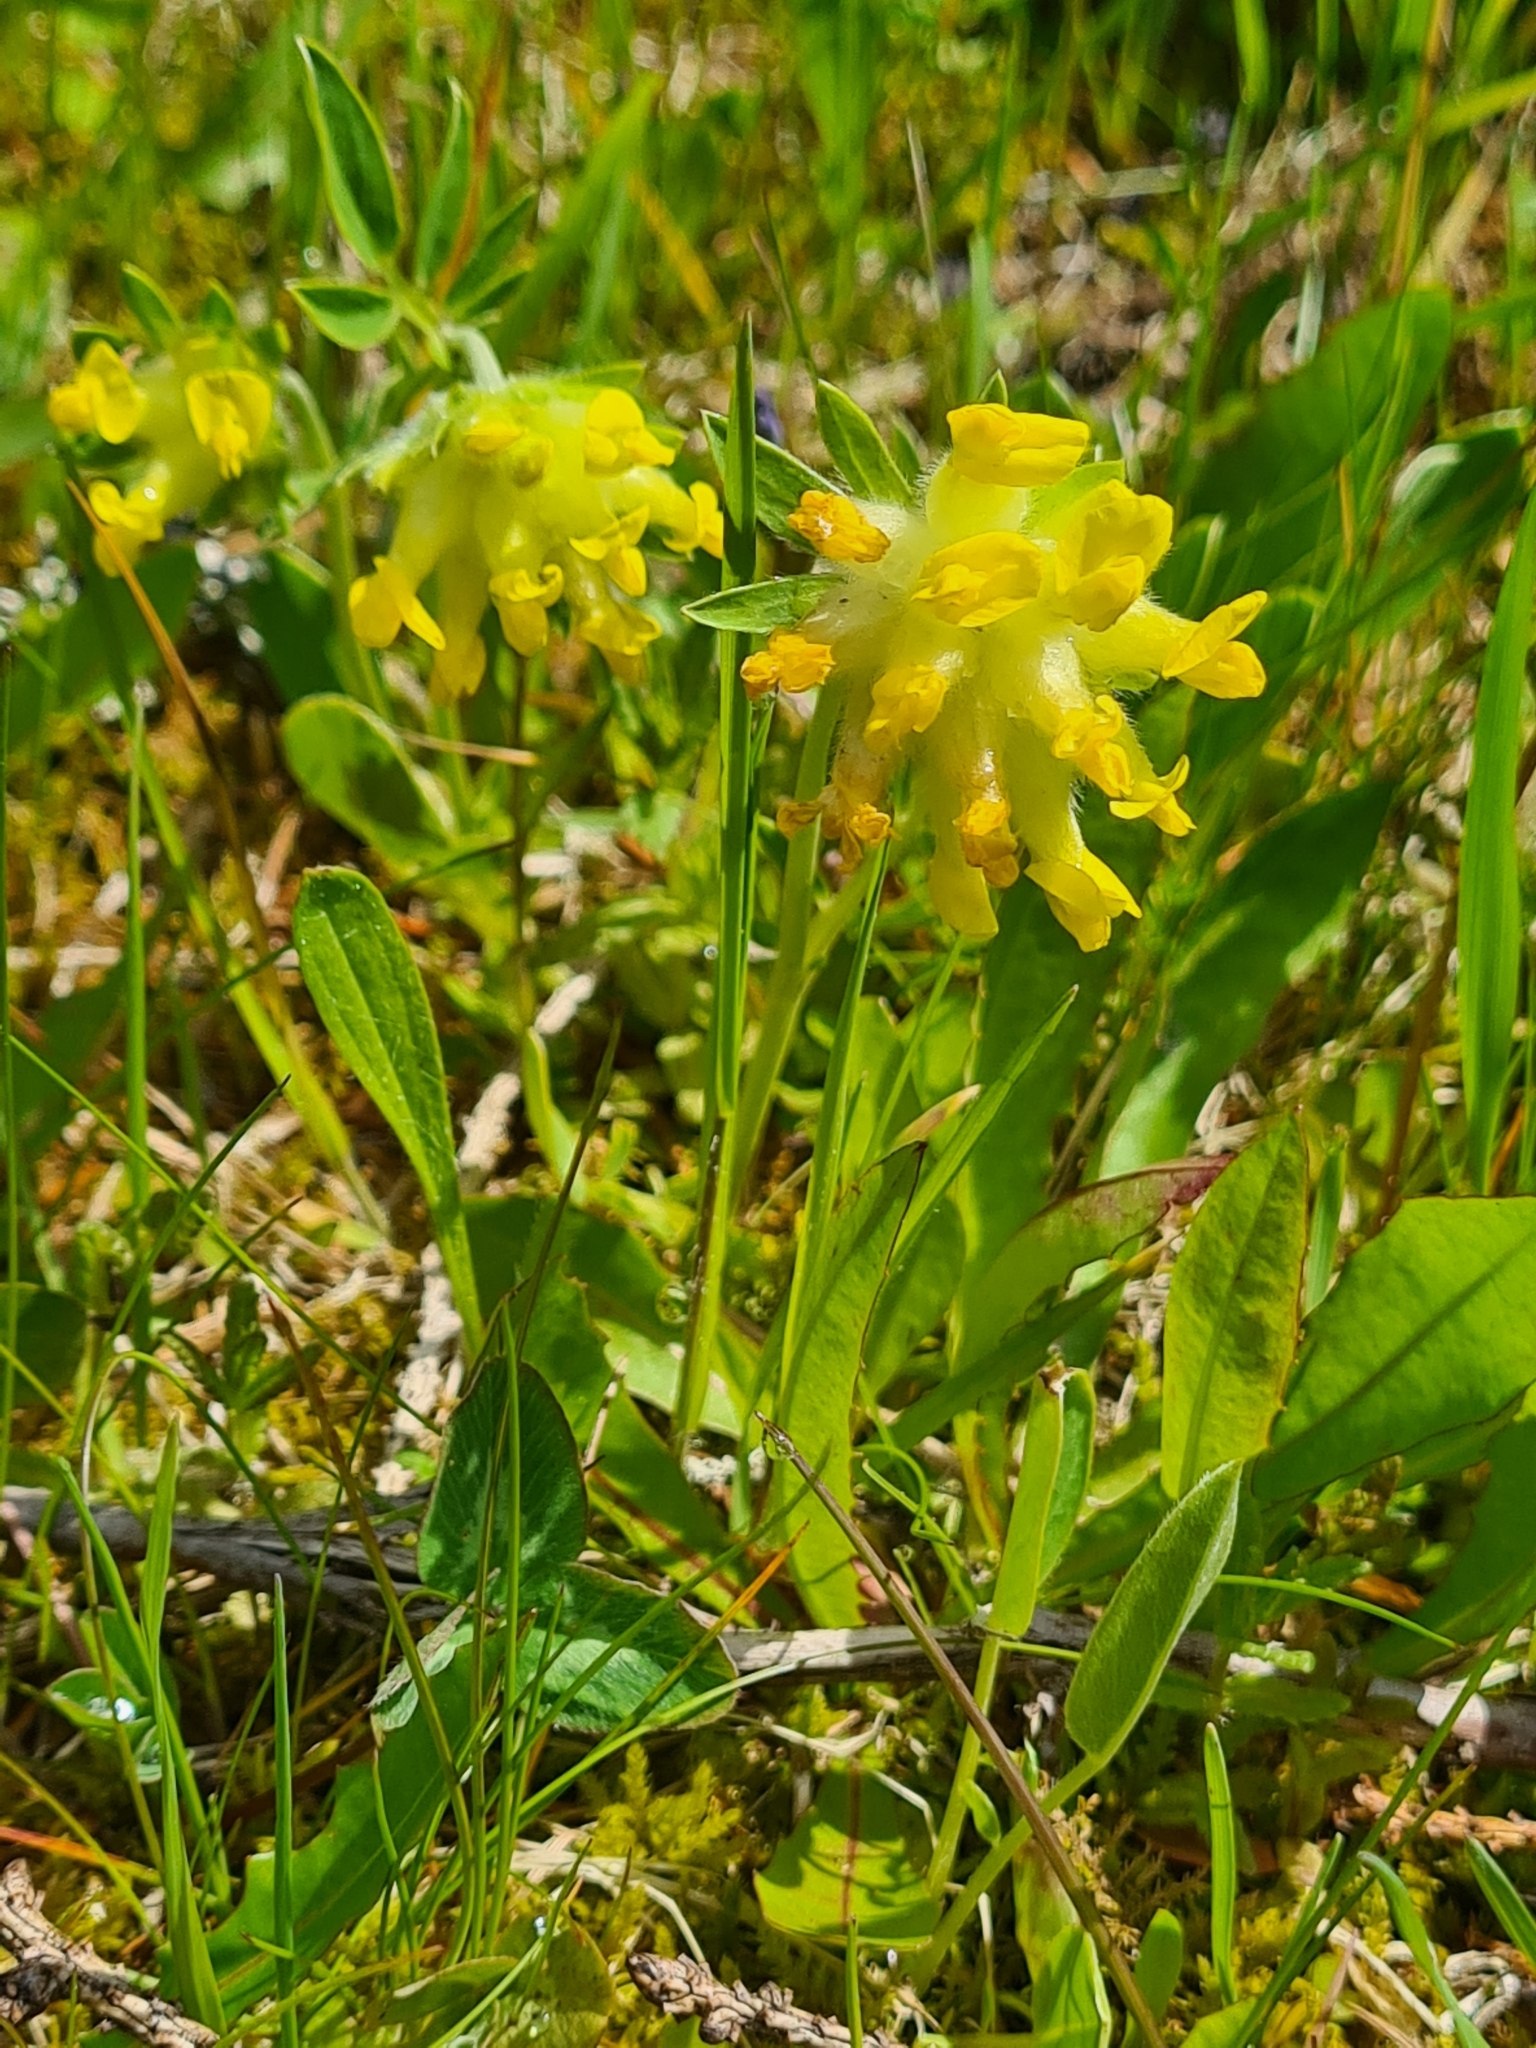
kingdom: Plantae
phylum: Tracheophyta
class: Magnoliopsida
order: Fabales
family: Fabaceae
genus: Anthyllis
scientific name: Anthyllis vulneraria
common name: Kidney vetch
